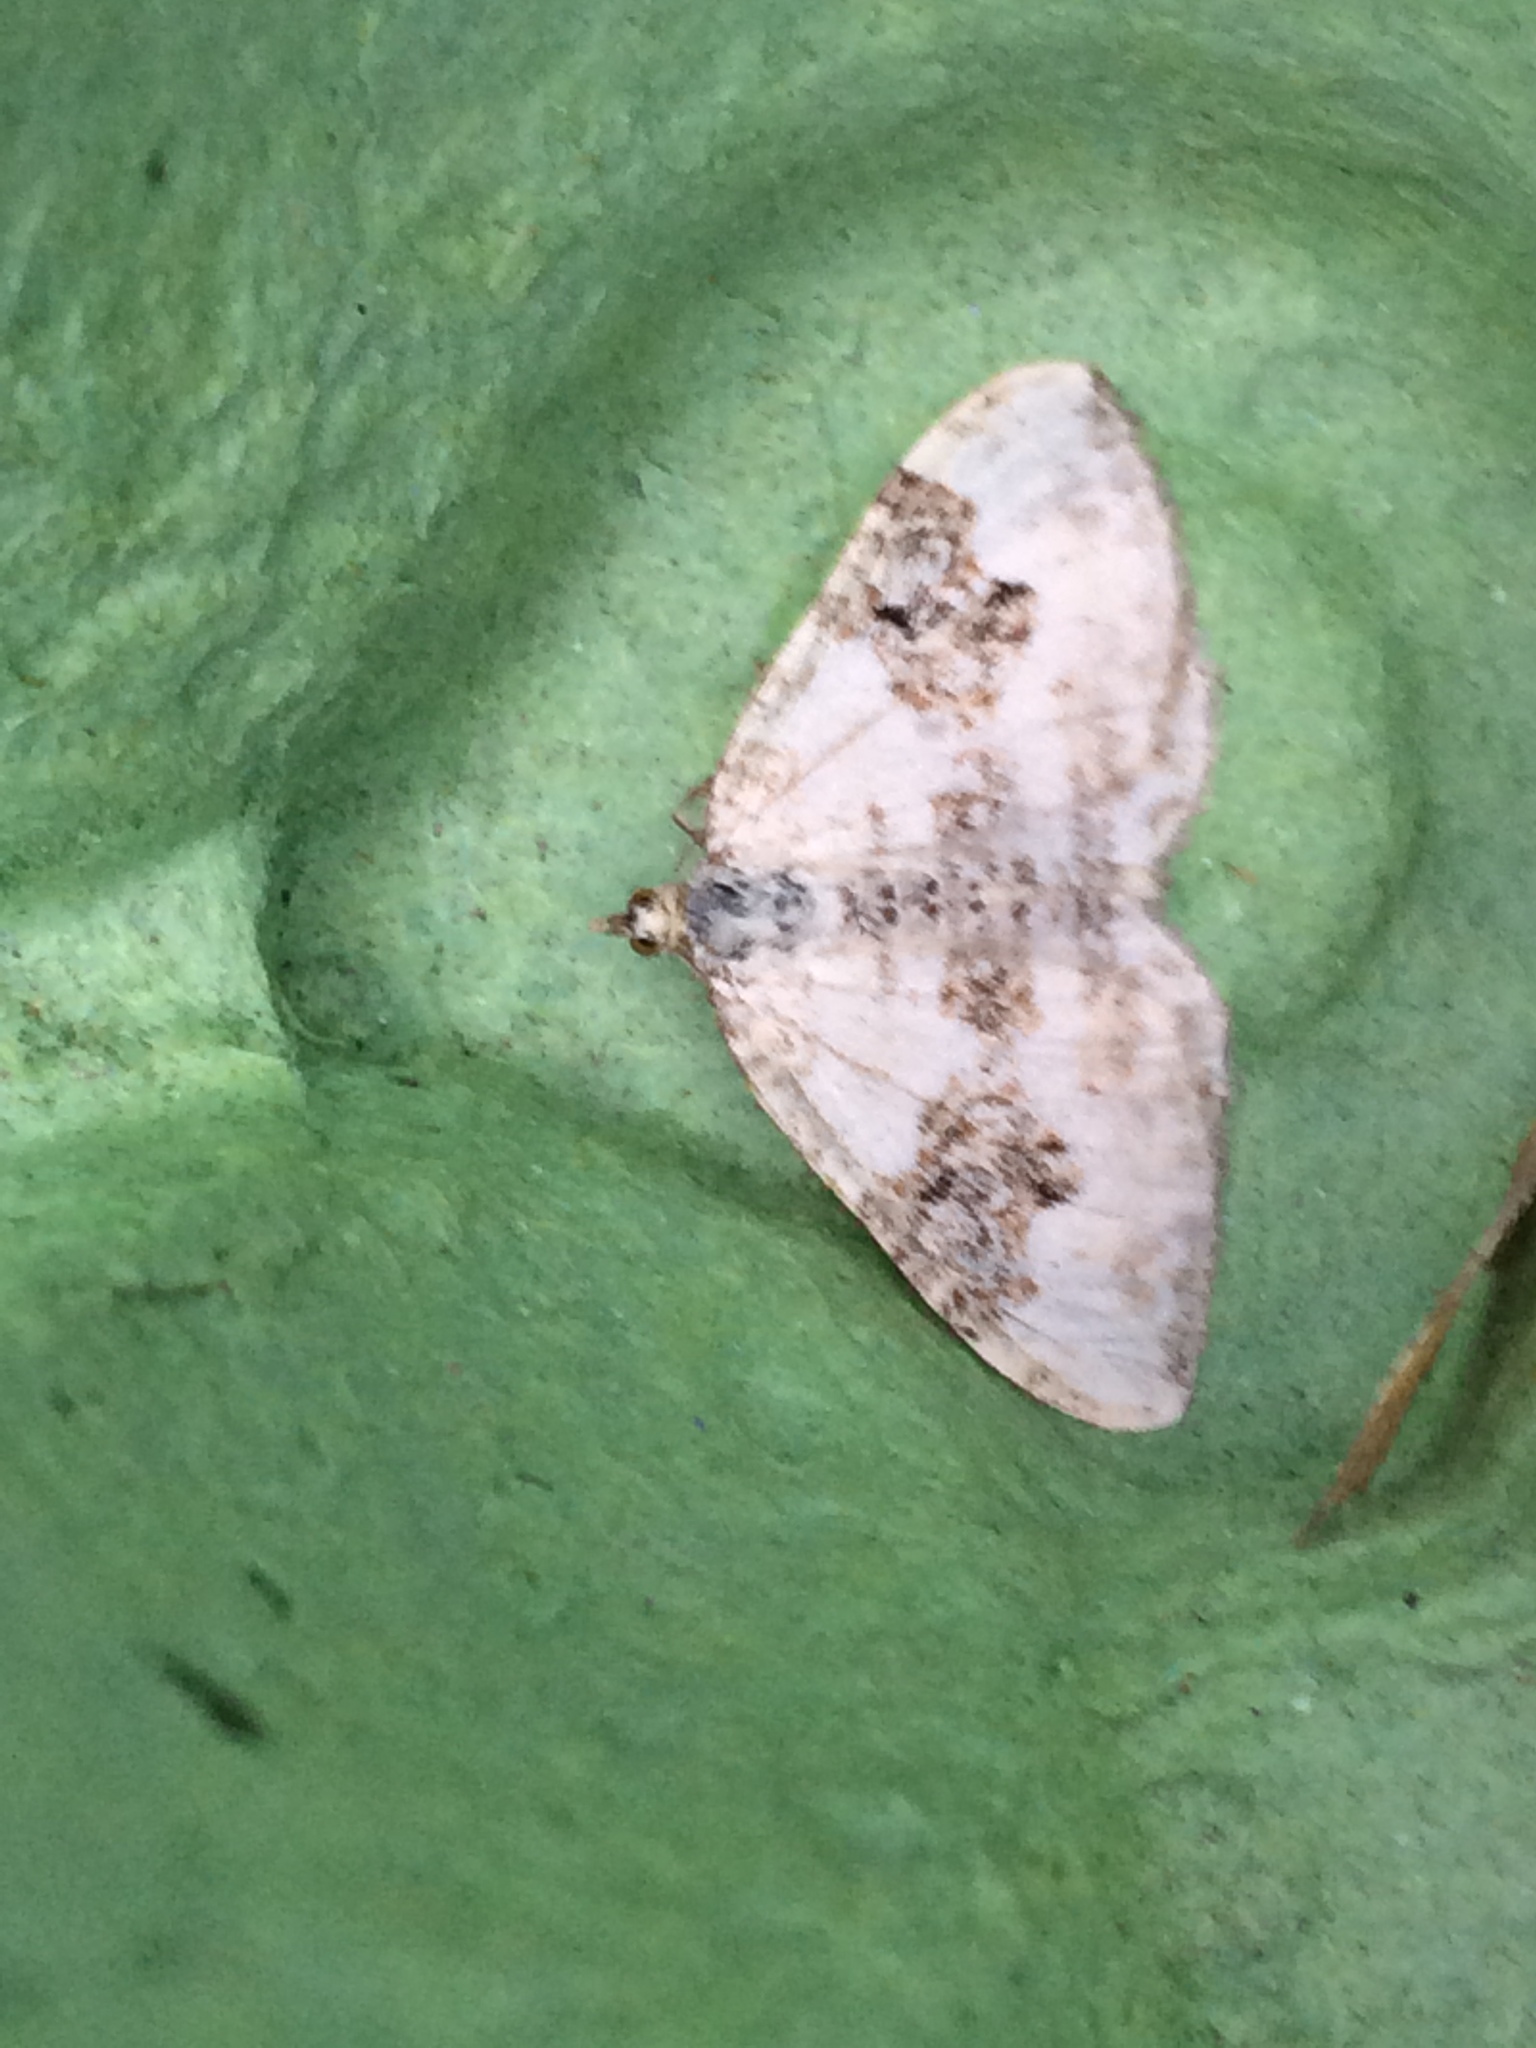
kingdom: Animalia
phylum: Arthropoda
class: Insecta
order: Lepidoptera
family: Geometridae
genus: Xanthorhoe
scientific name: Xanthorhoe montanata
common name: Silver-ground carpet
